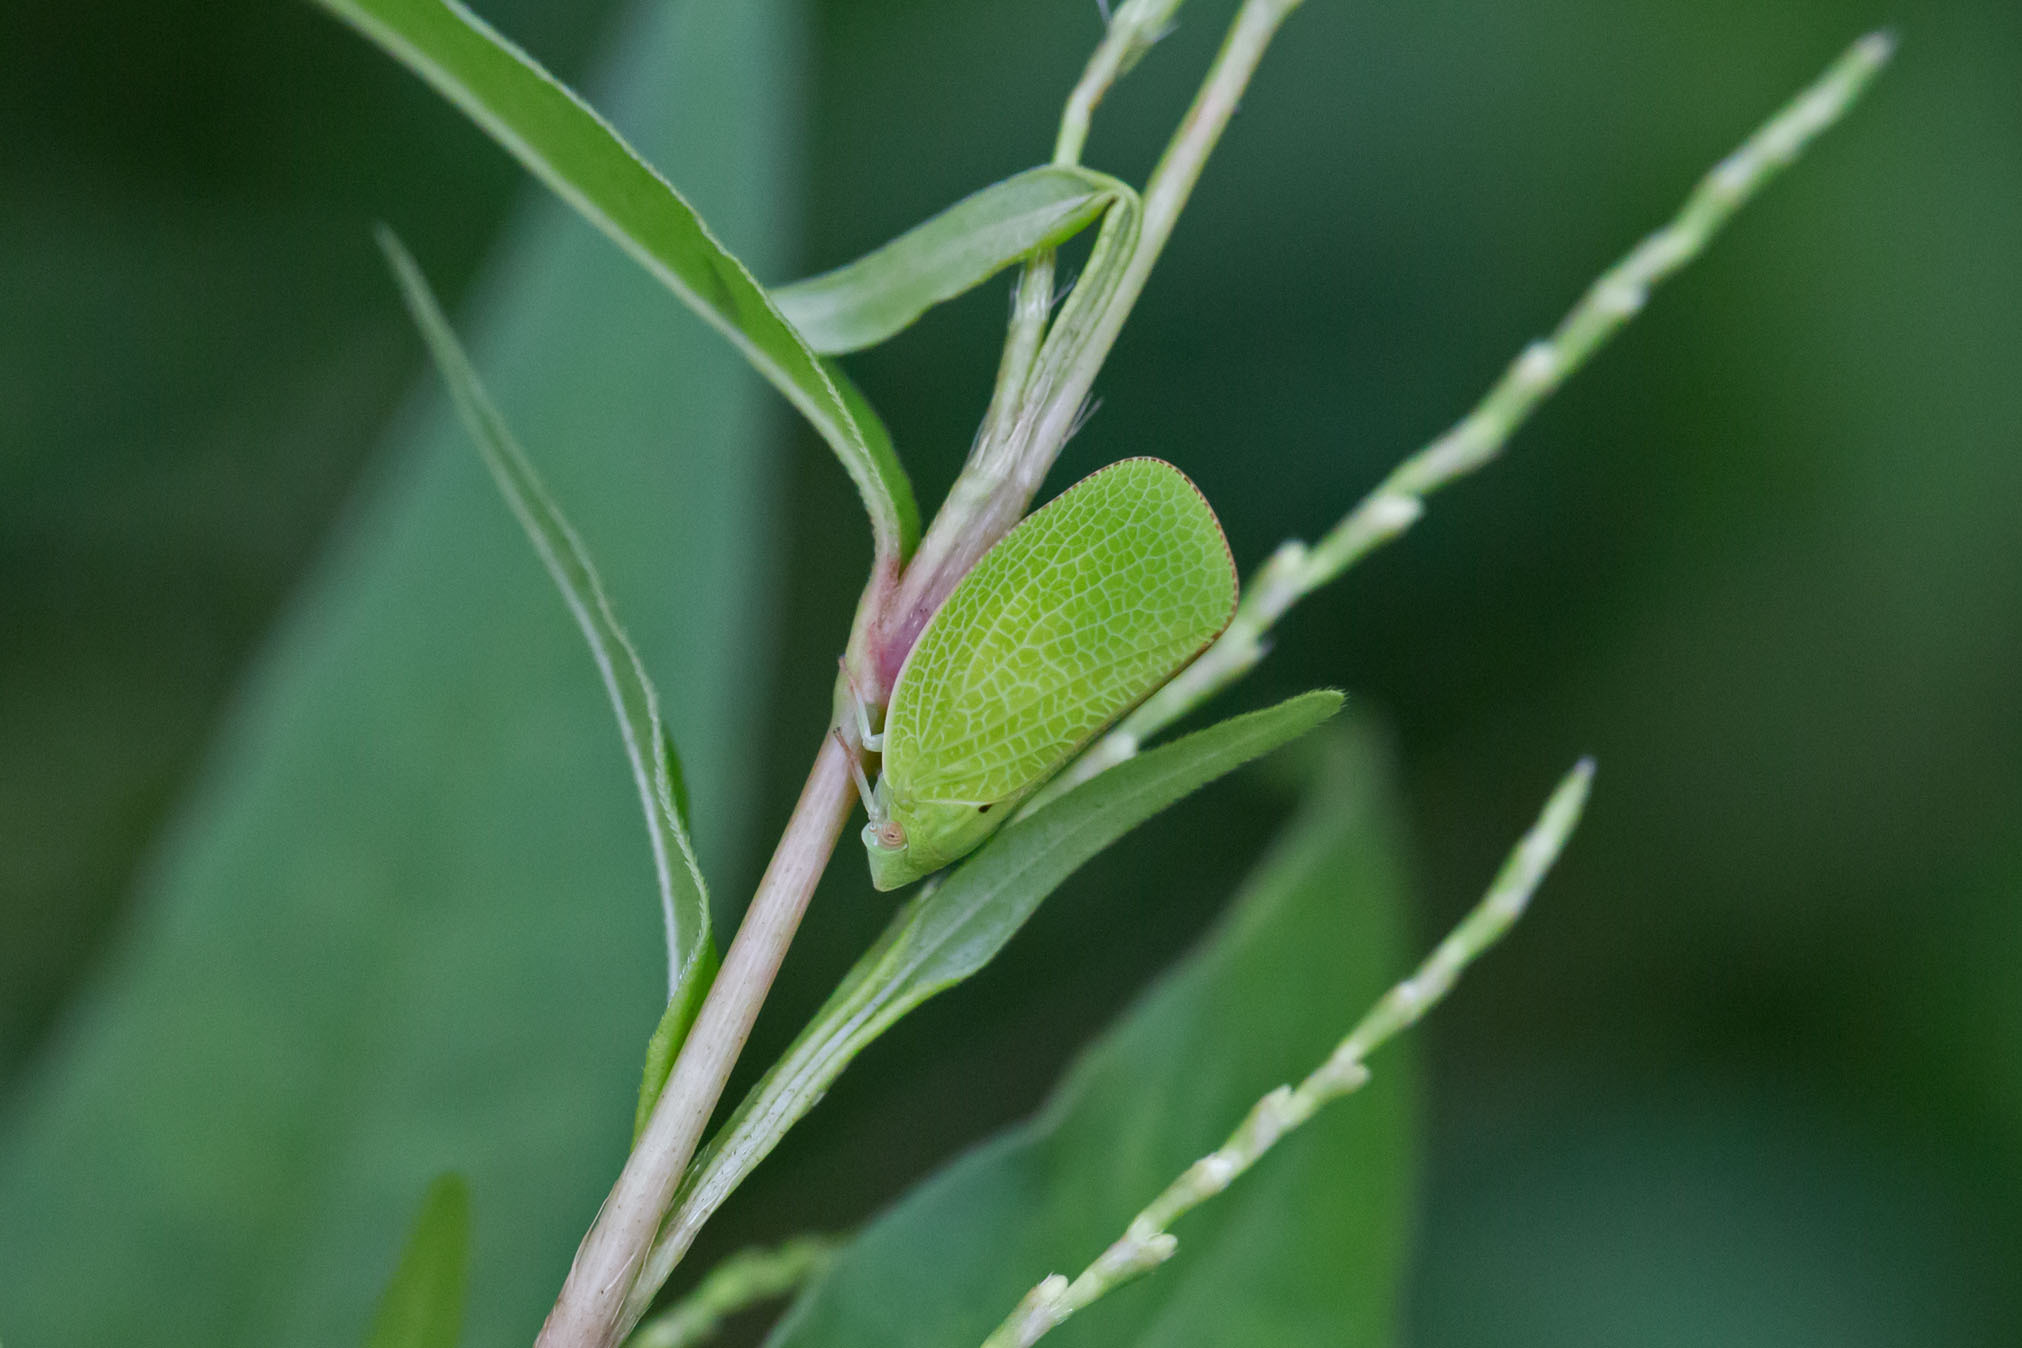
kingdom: Animalia
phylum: Arthropoda
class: Insecta
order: Hemiptera
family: Acanaloniidae
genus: Acanalonia
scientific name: Acanalonia conica
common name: Green cone-headed planthopper
